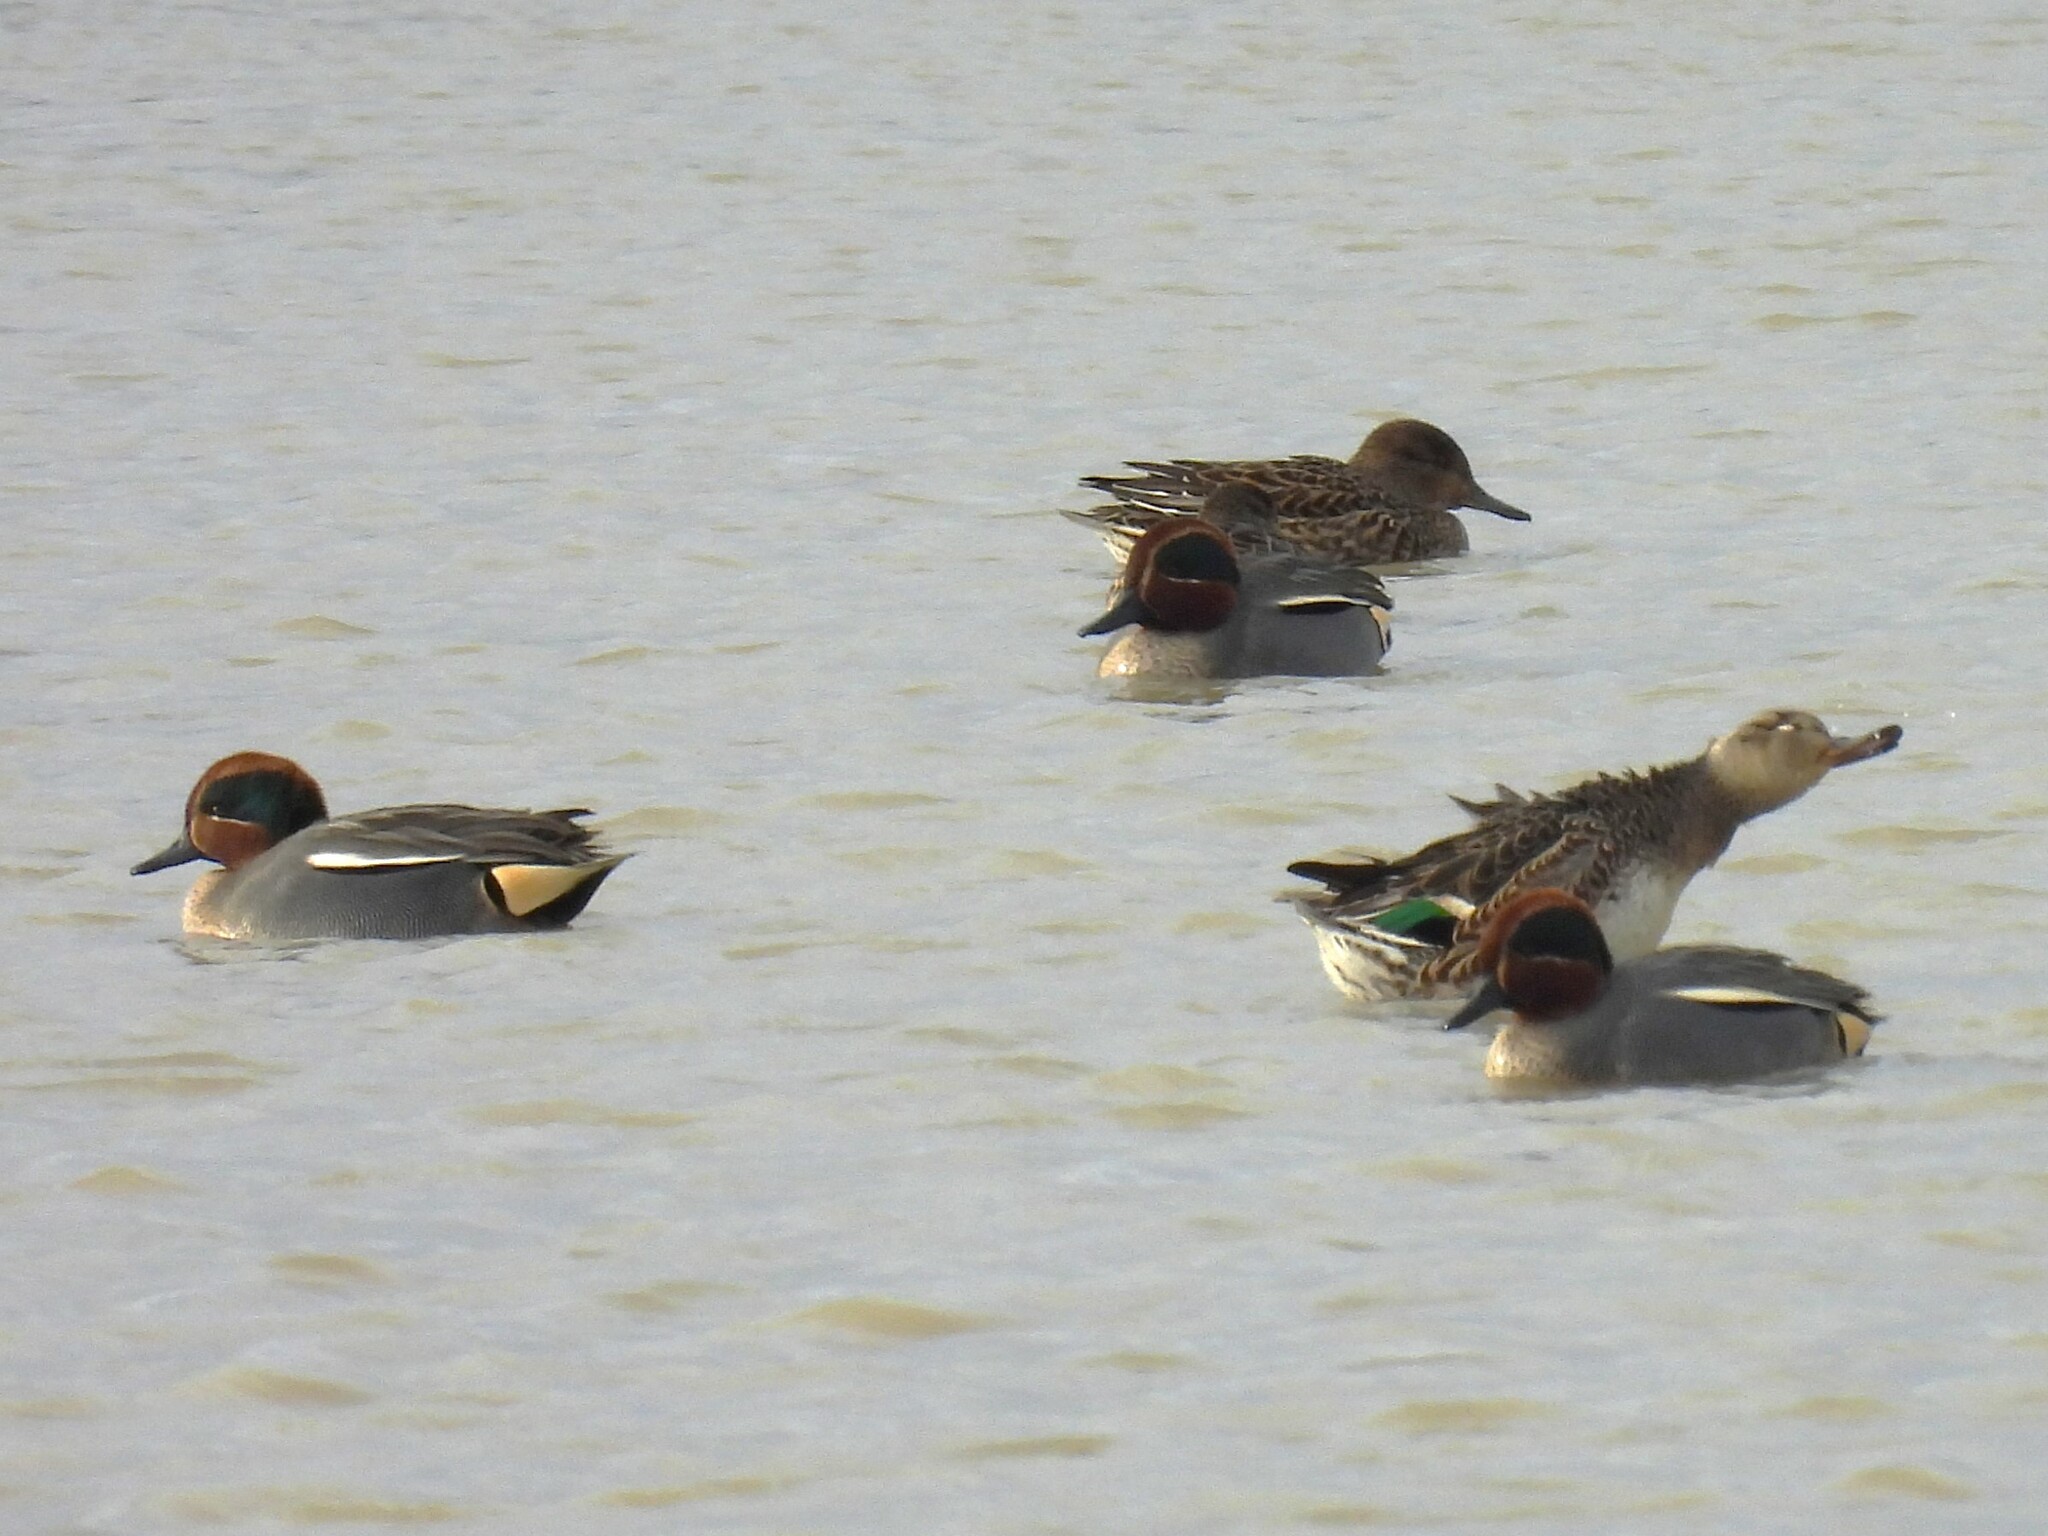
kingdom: Animalia
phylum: Chordata
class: Aves
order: Anseriformes
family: Anatidae
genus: Anas
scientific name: Anas crecca
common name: Eurasian teal
